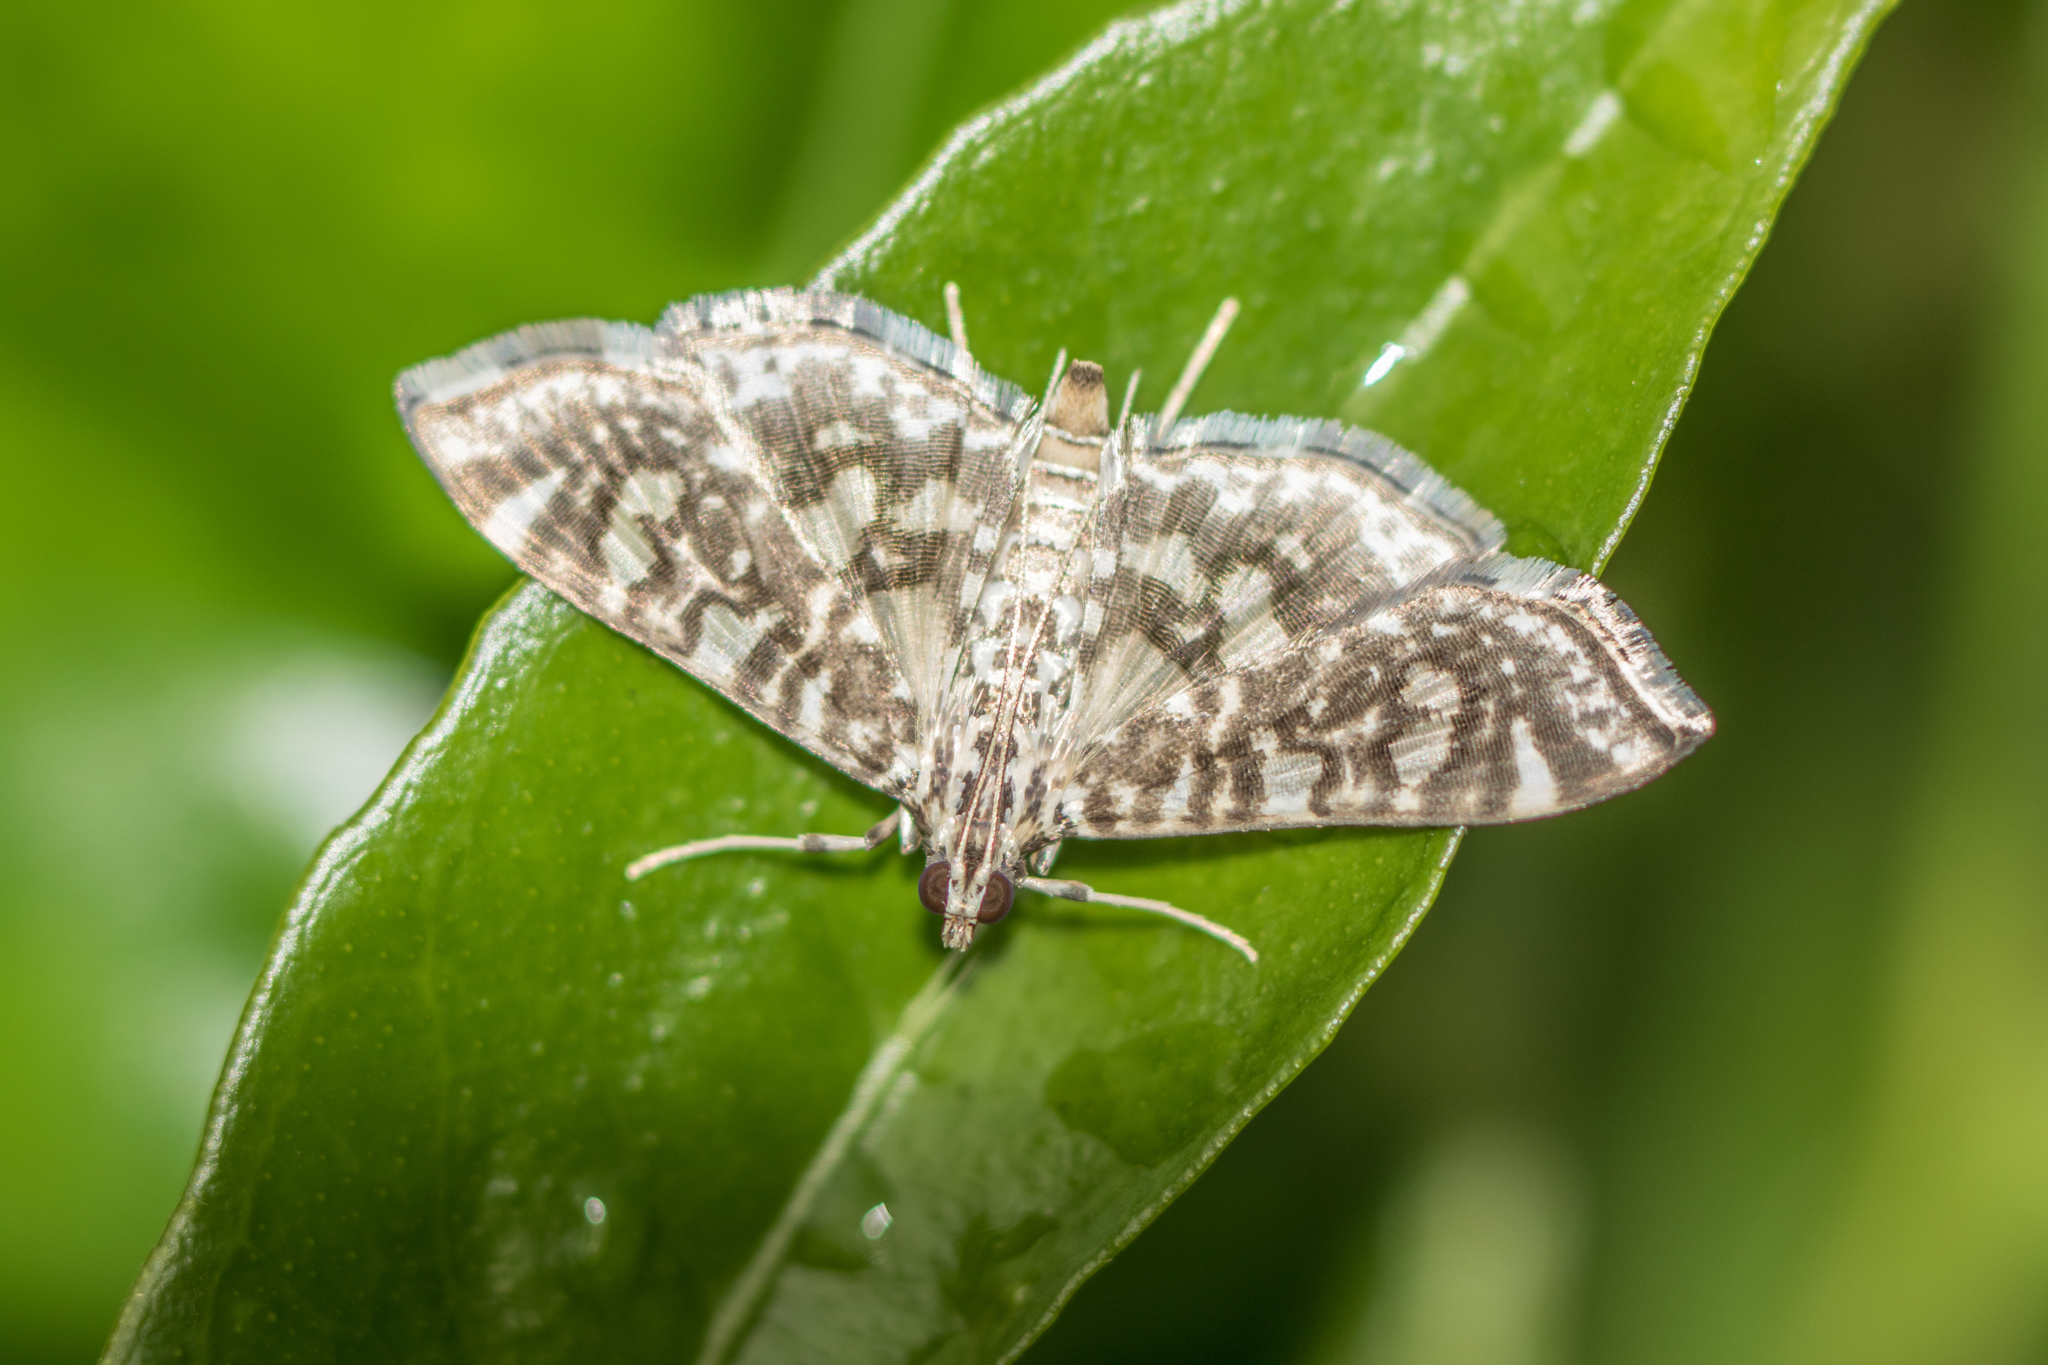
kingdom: Animalia
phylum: Arthropoda
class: Insecta
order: Lepidoptera
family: Crambidae
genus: Glyphodes
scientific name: Glyphodes onychinalis
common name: Swan plant moth
